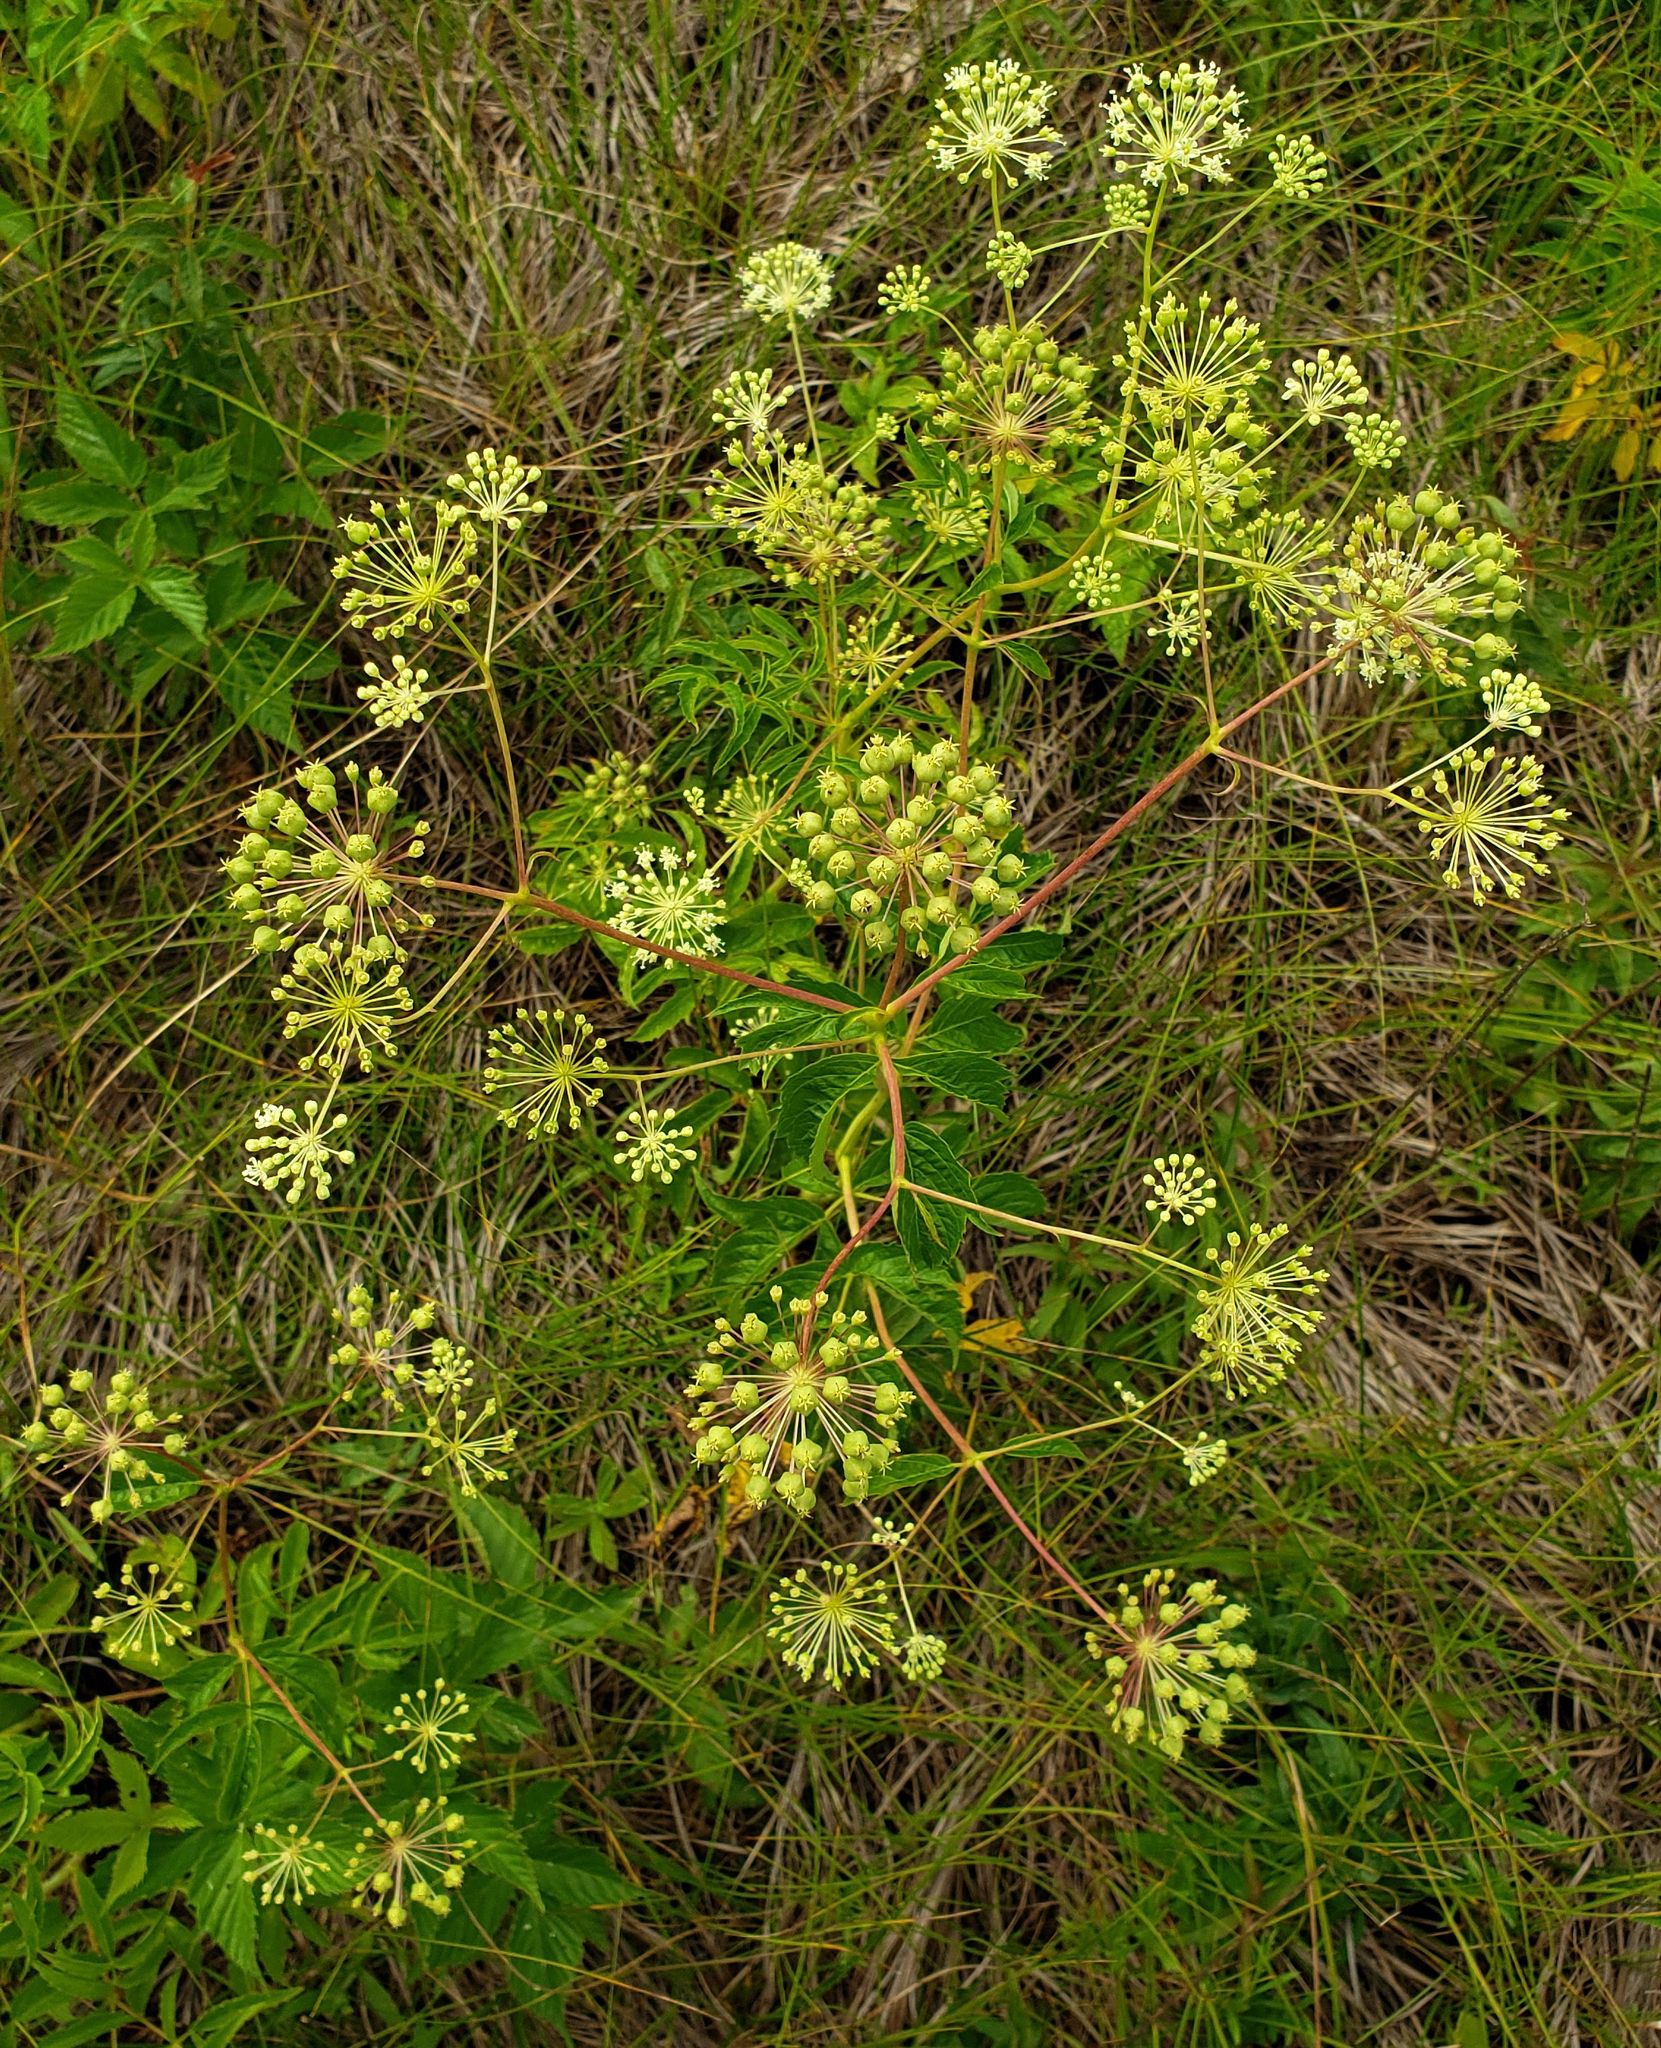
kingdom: Plantae
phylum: Tracheophyta
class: Magnoliopsida
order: Apiales
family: Araliaceae
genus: Aralia
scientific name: Aralia hispida
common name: Bristly sarsaparilla
